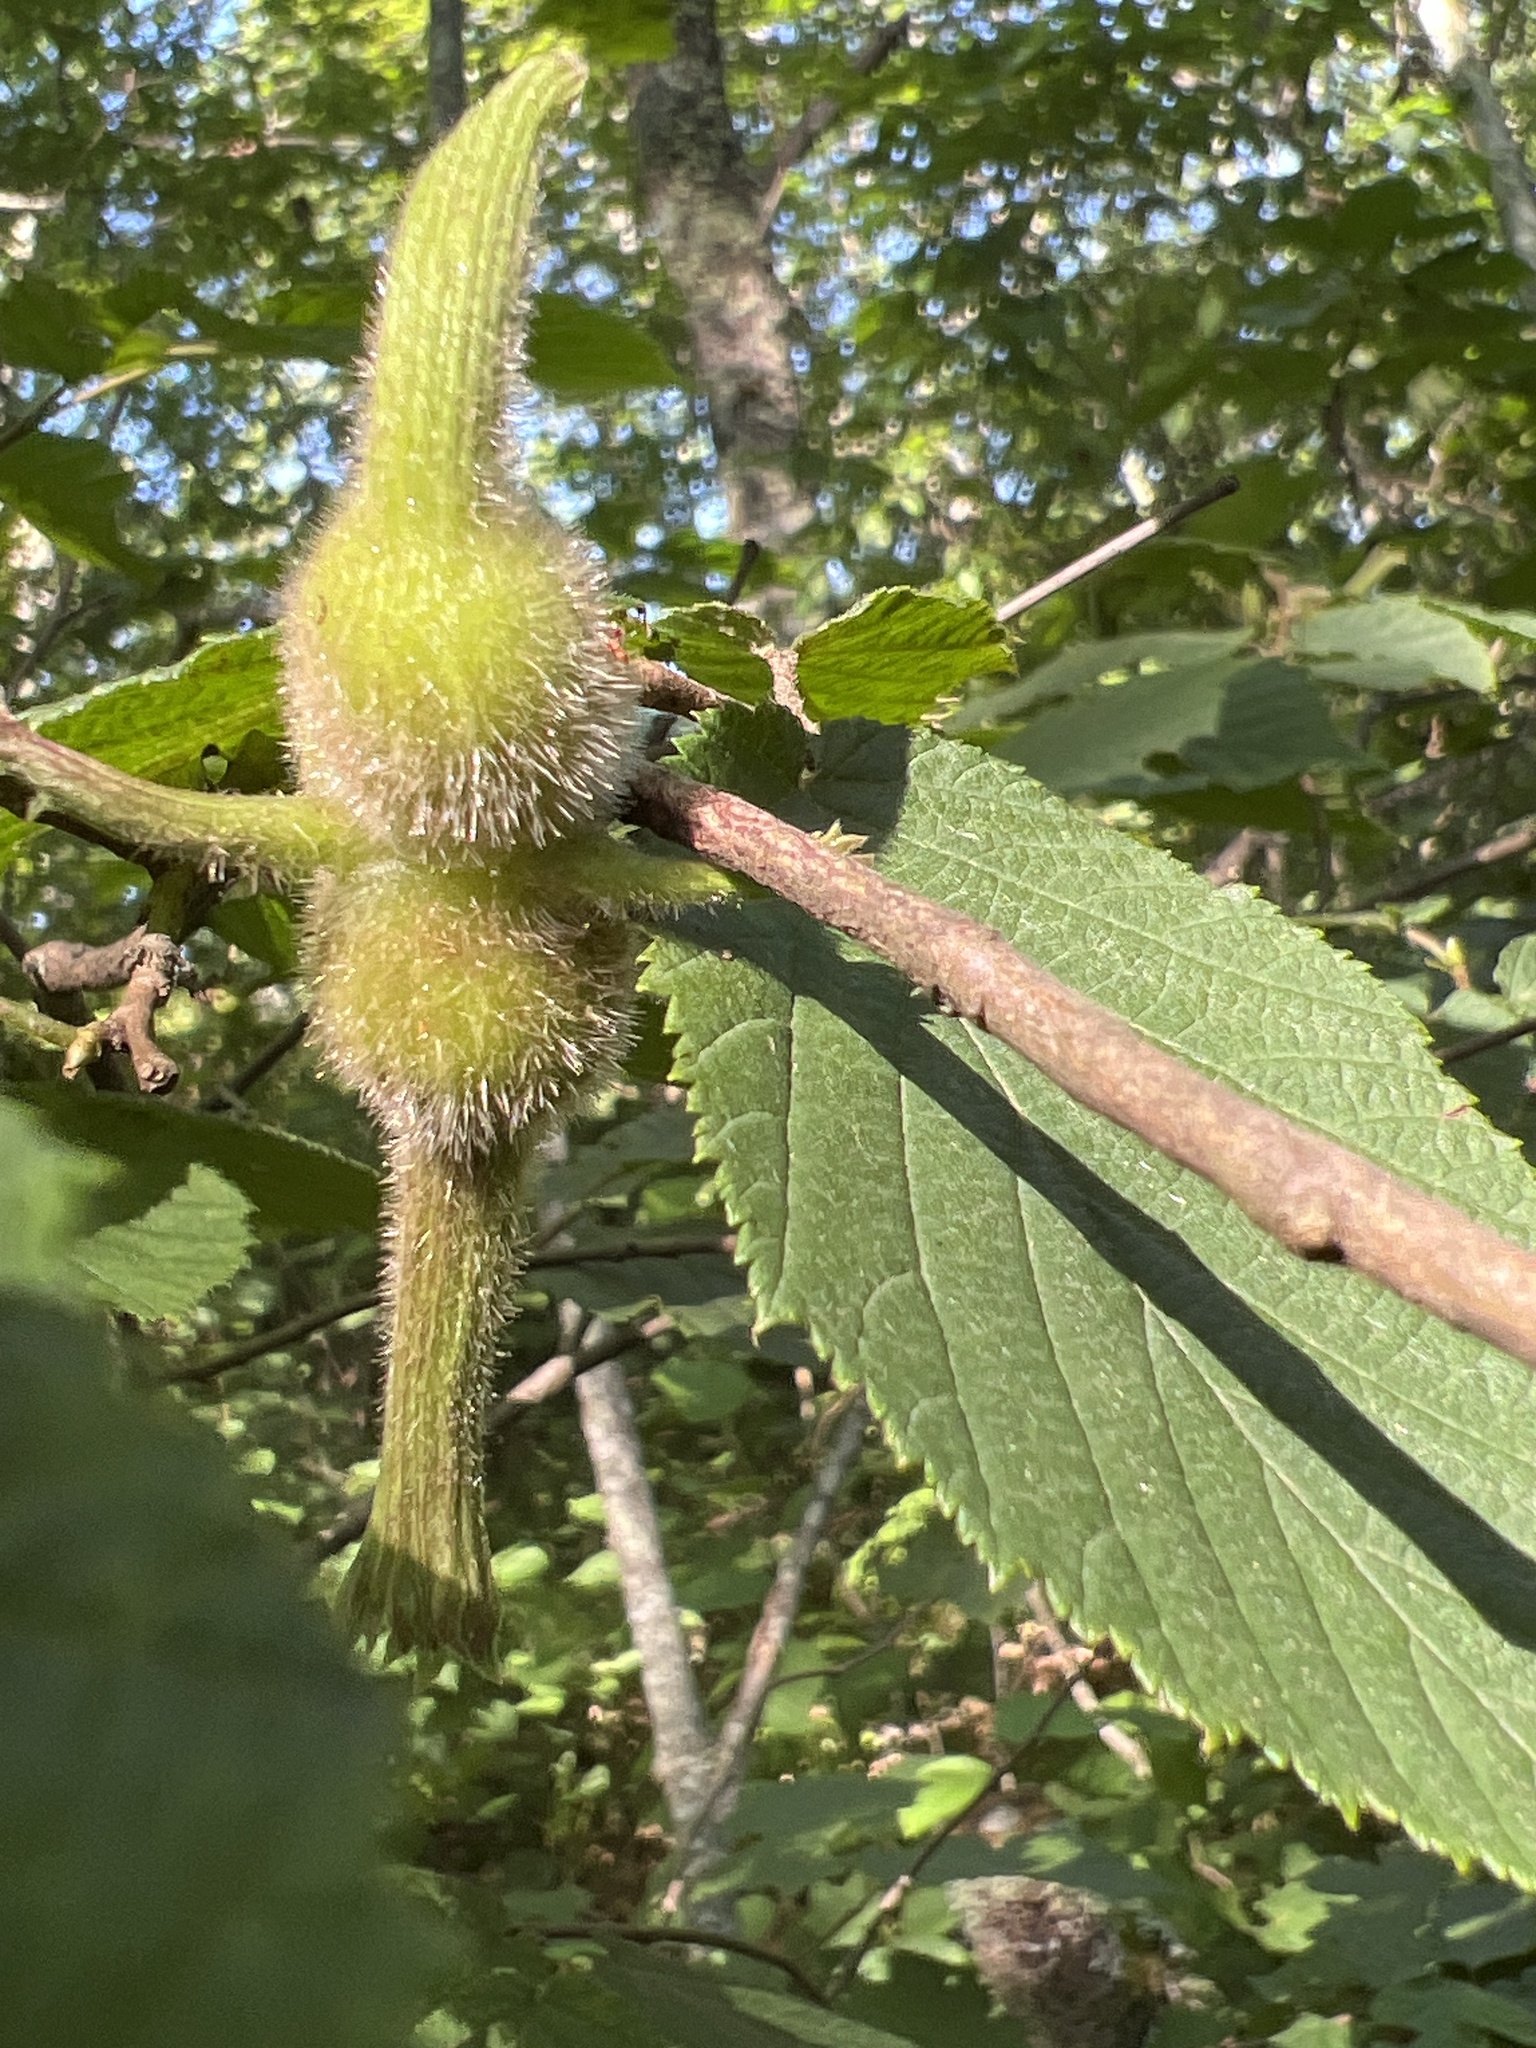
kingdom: Plantae
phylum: Tracheophyta
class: Magnoliopsida
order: Fagales
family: Betulaceae
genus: Corylus
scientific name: Corylus cornuta
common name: Beaked hazel
